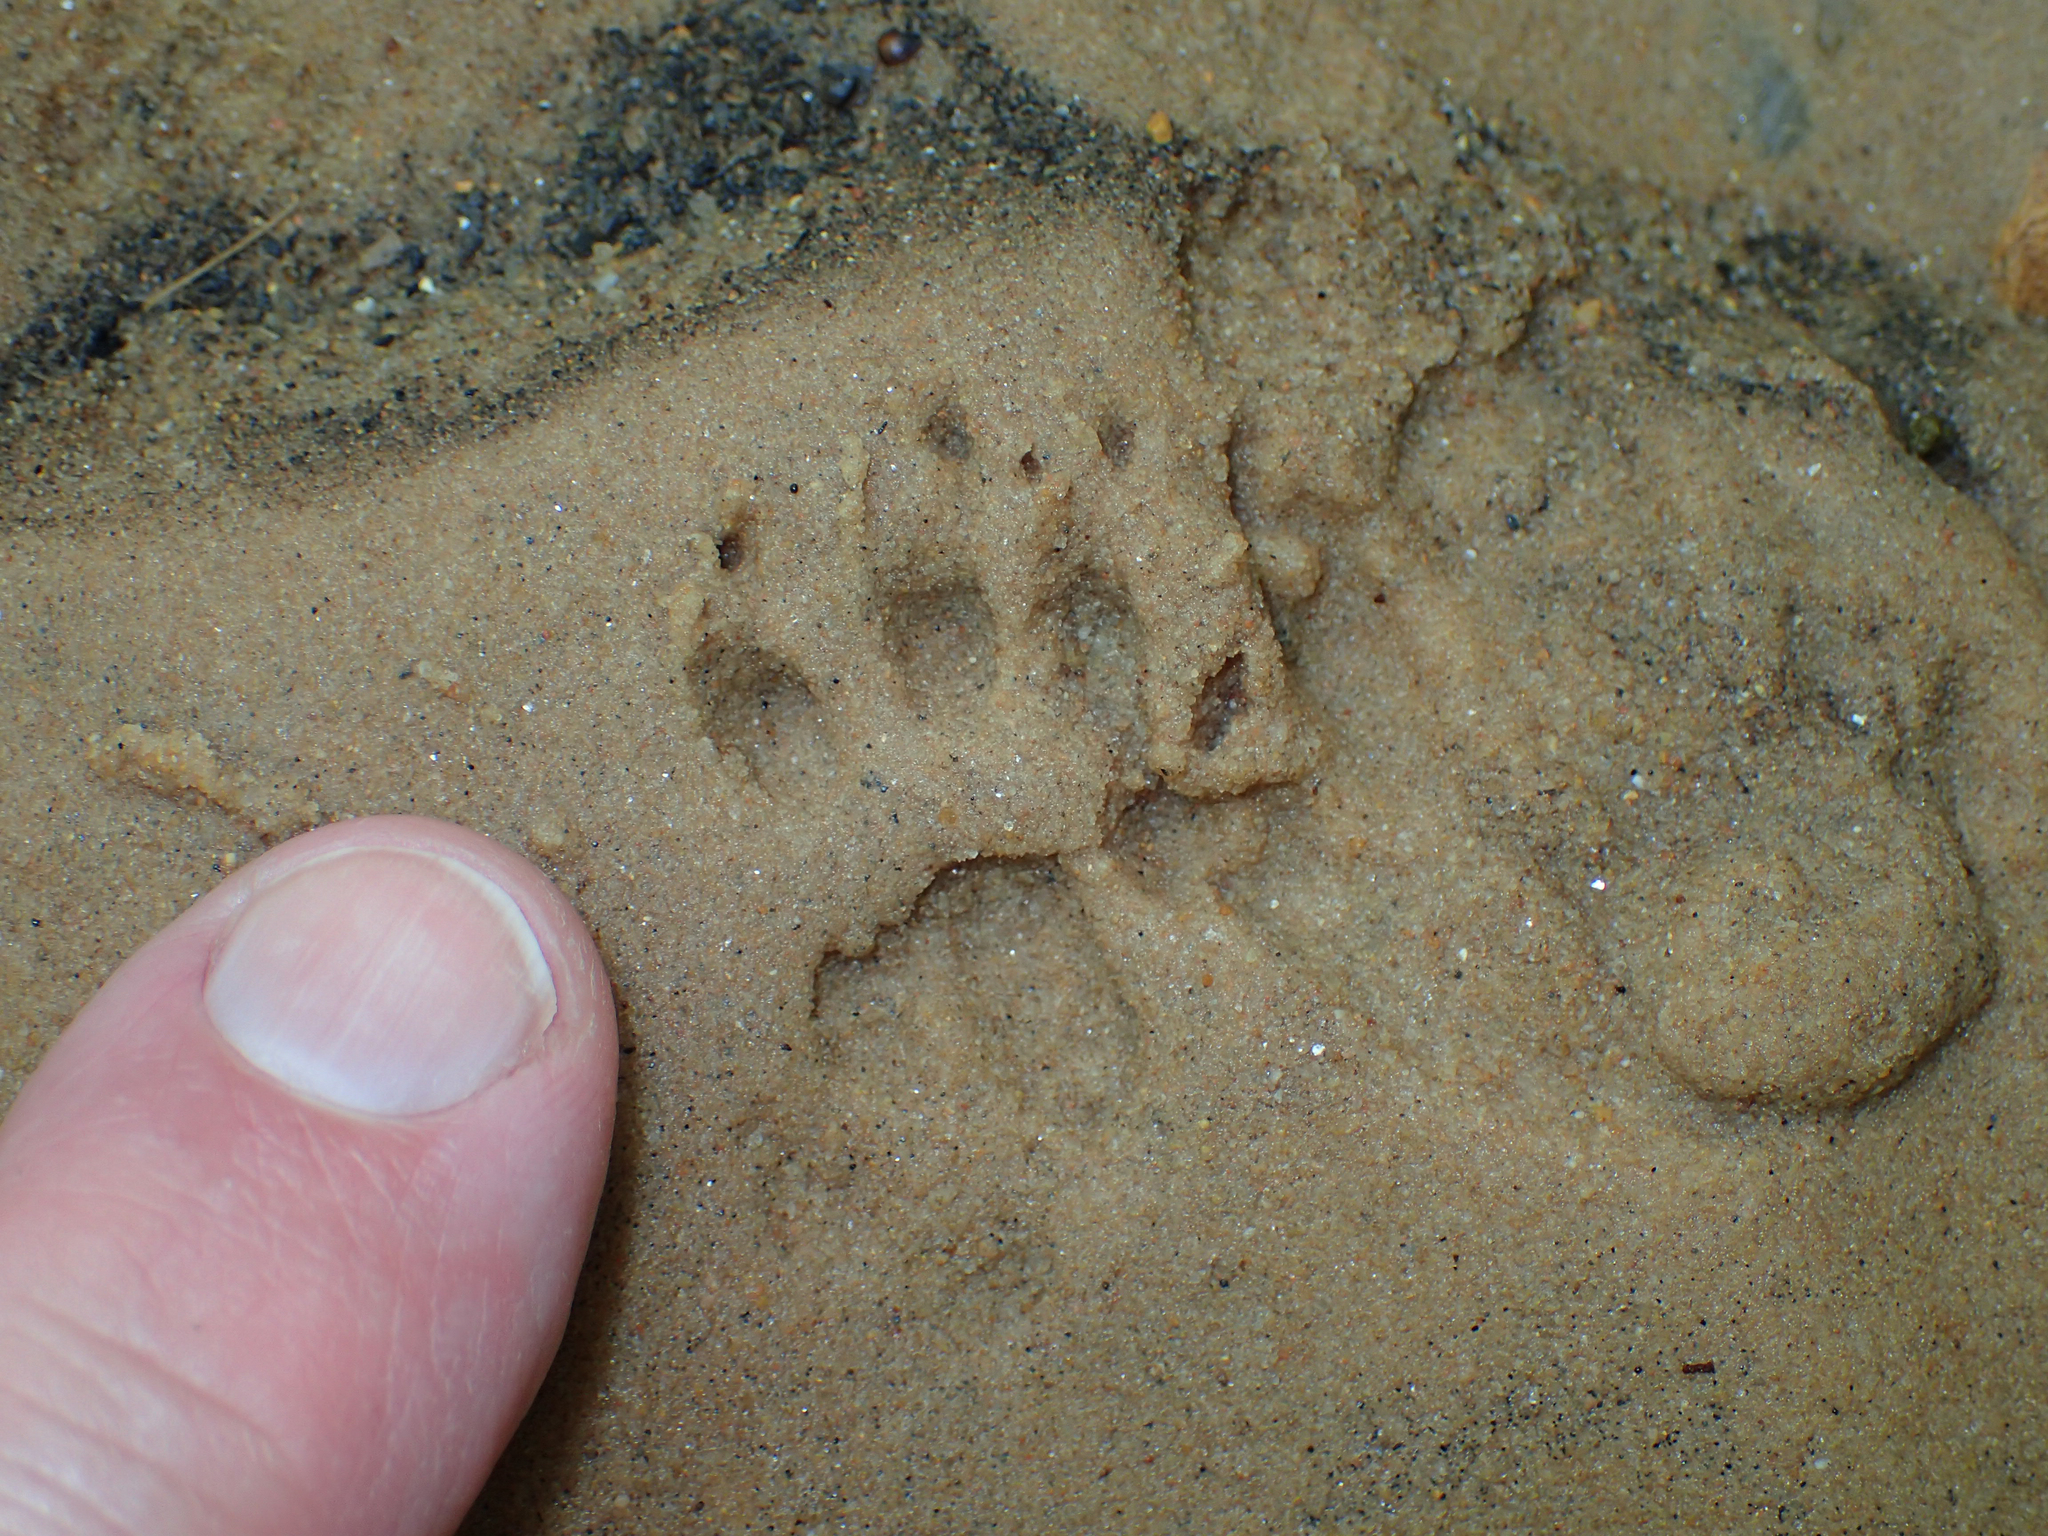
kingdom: Animalia
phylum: Chordata
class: Mammalia
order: Didelphimorphia
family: Didelphidae
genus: Didelphis
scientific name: Didelphis virginiana
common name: Virginia opossum
